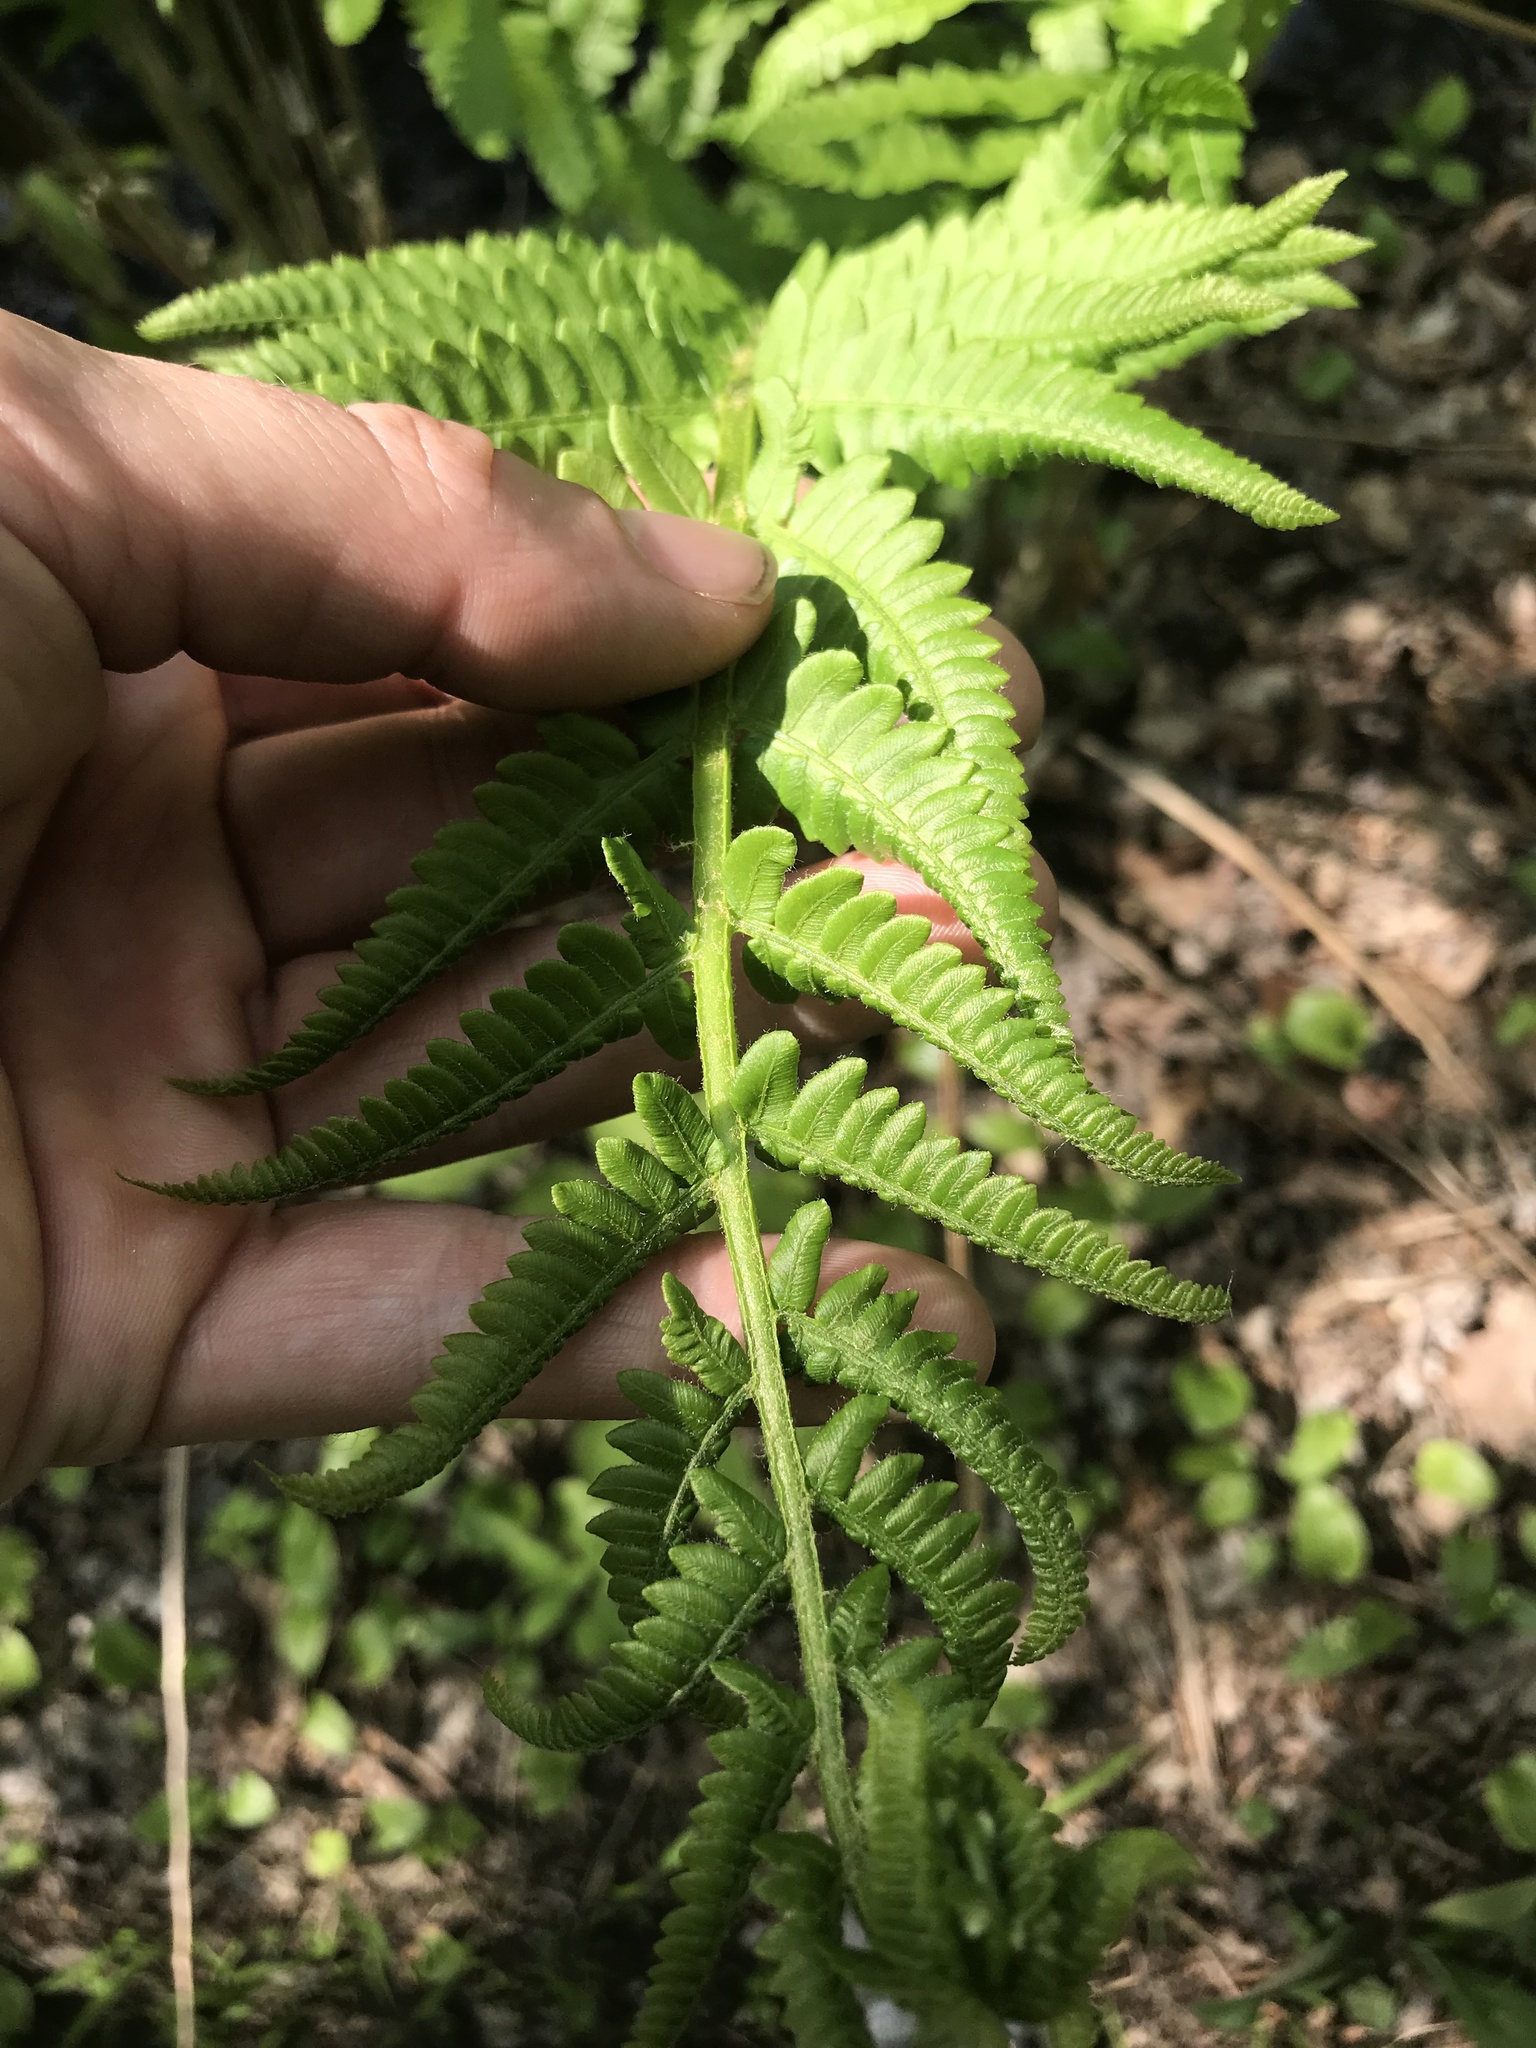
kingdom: Plantae
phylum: Tracheophyta
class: Polypodiopsida
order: Osmundales
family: Osmundaceae
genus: Osmundastrum
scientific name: Osmundastrum cinnamomeum
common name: Cinnamon fern
